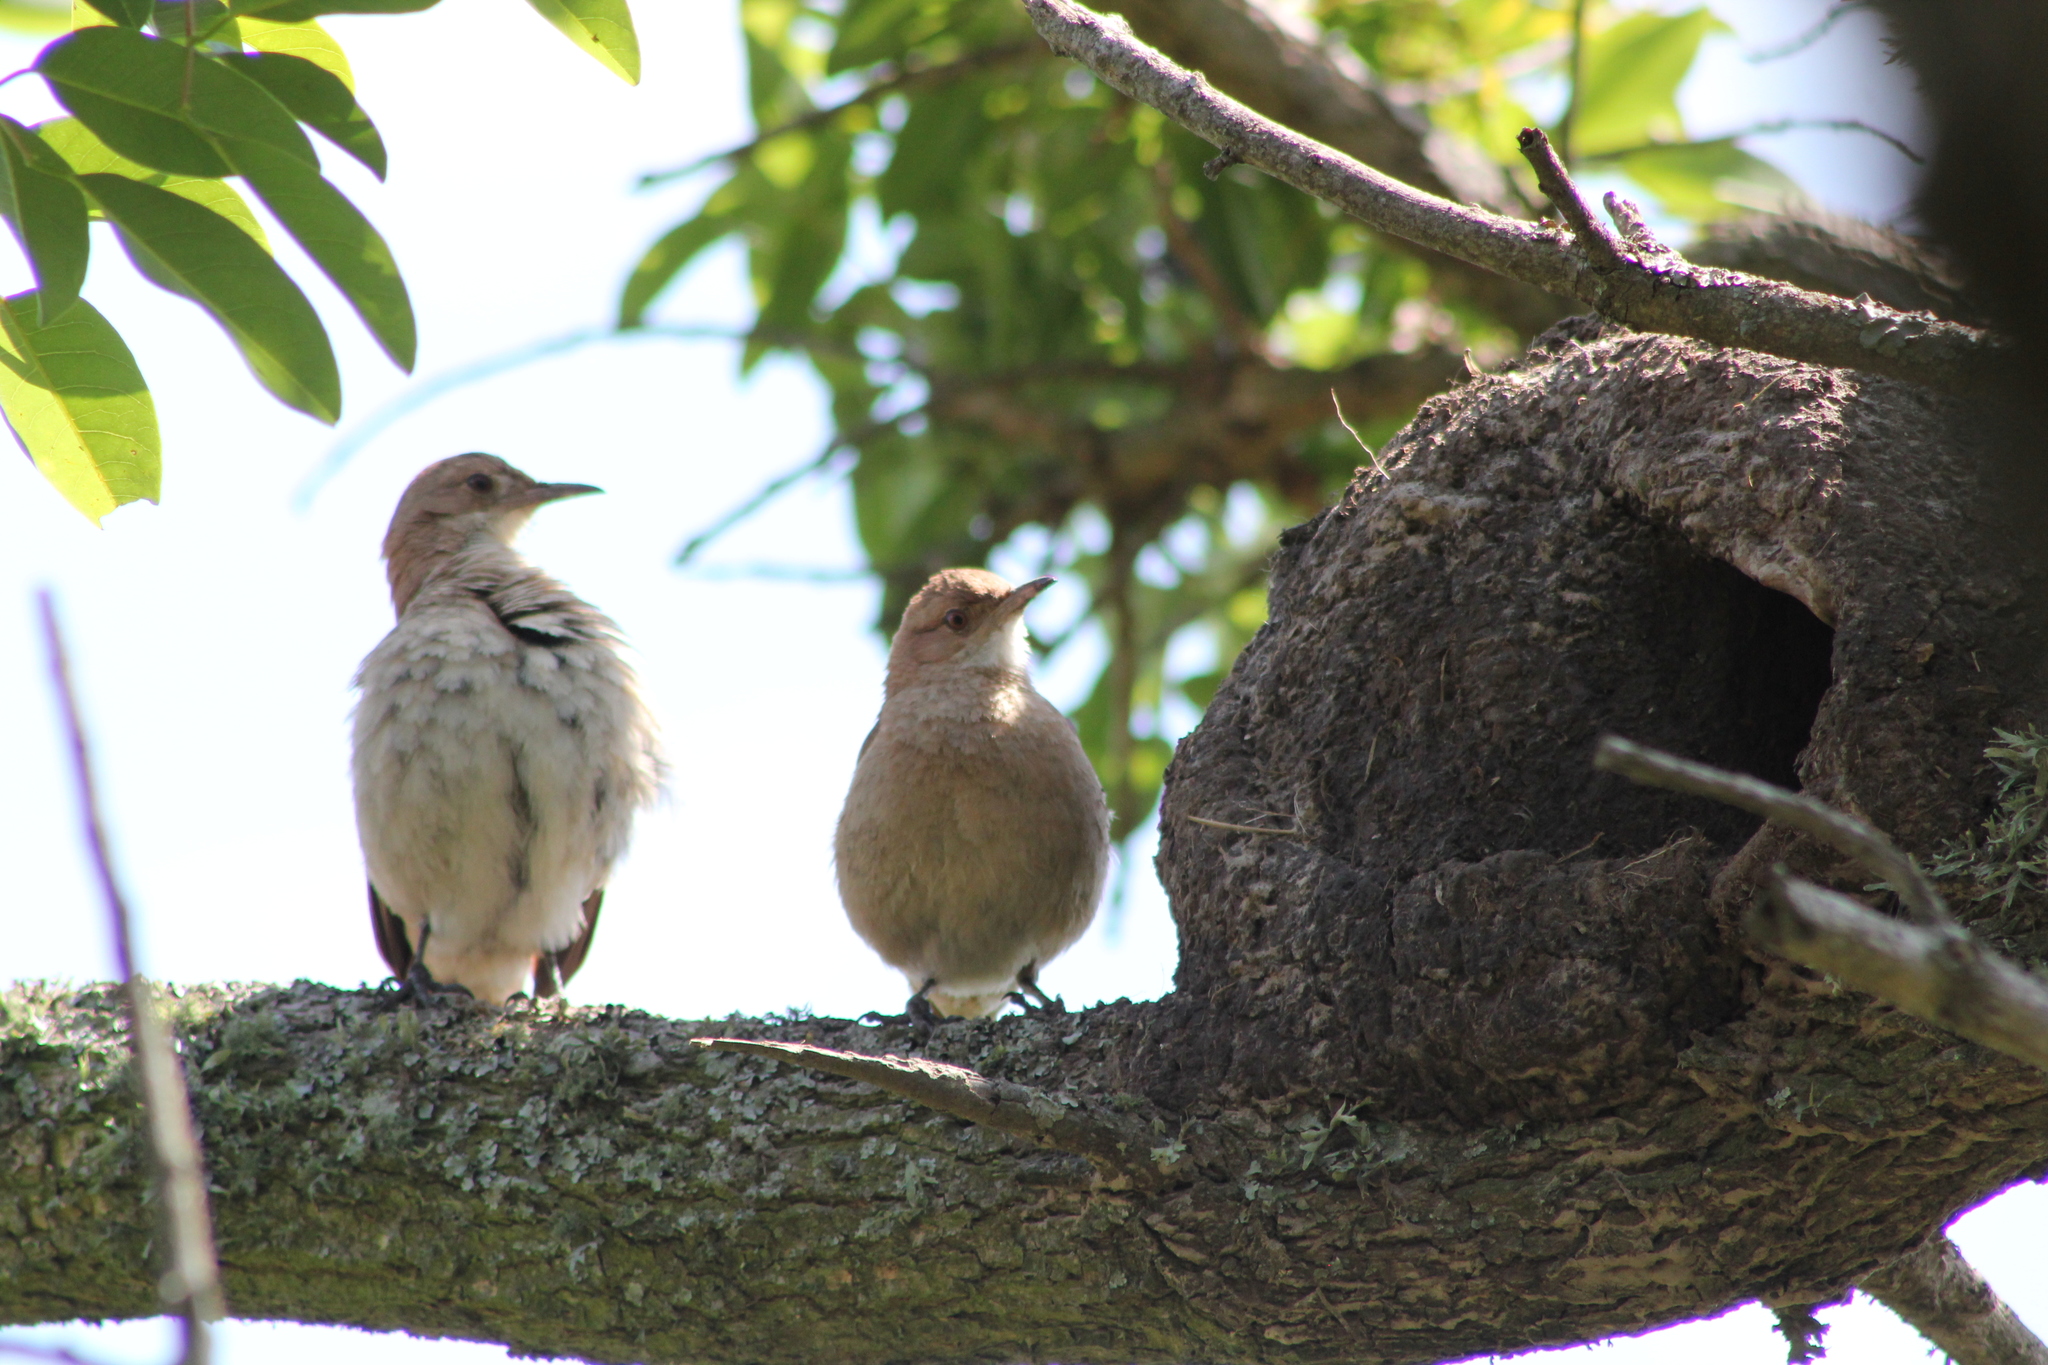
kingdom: Animalia
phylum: Chordata
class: Aves
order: Passeriformes
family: Furnariidae
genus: Furnarius
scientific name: Furnarius rufus
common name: Rufous hornero
